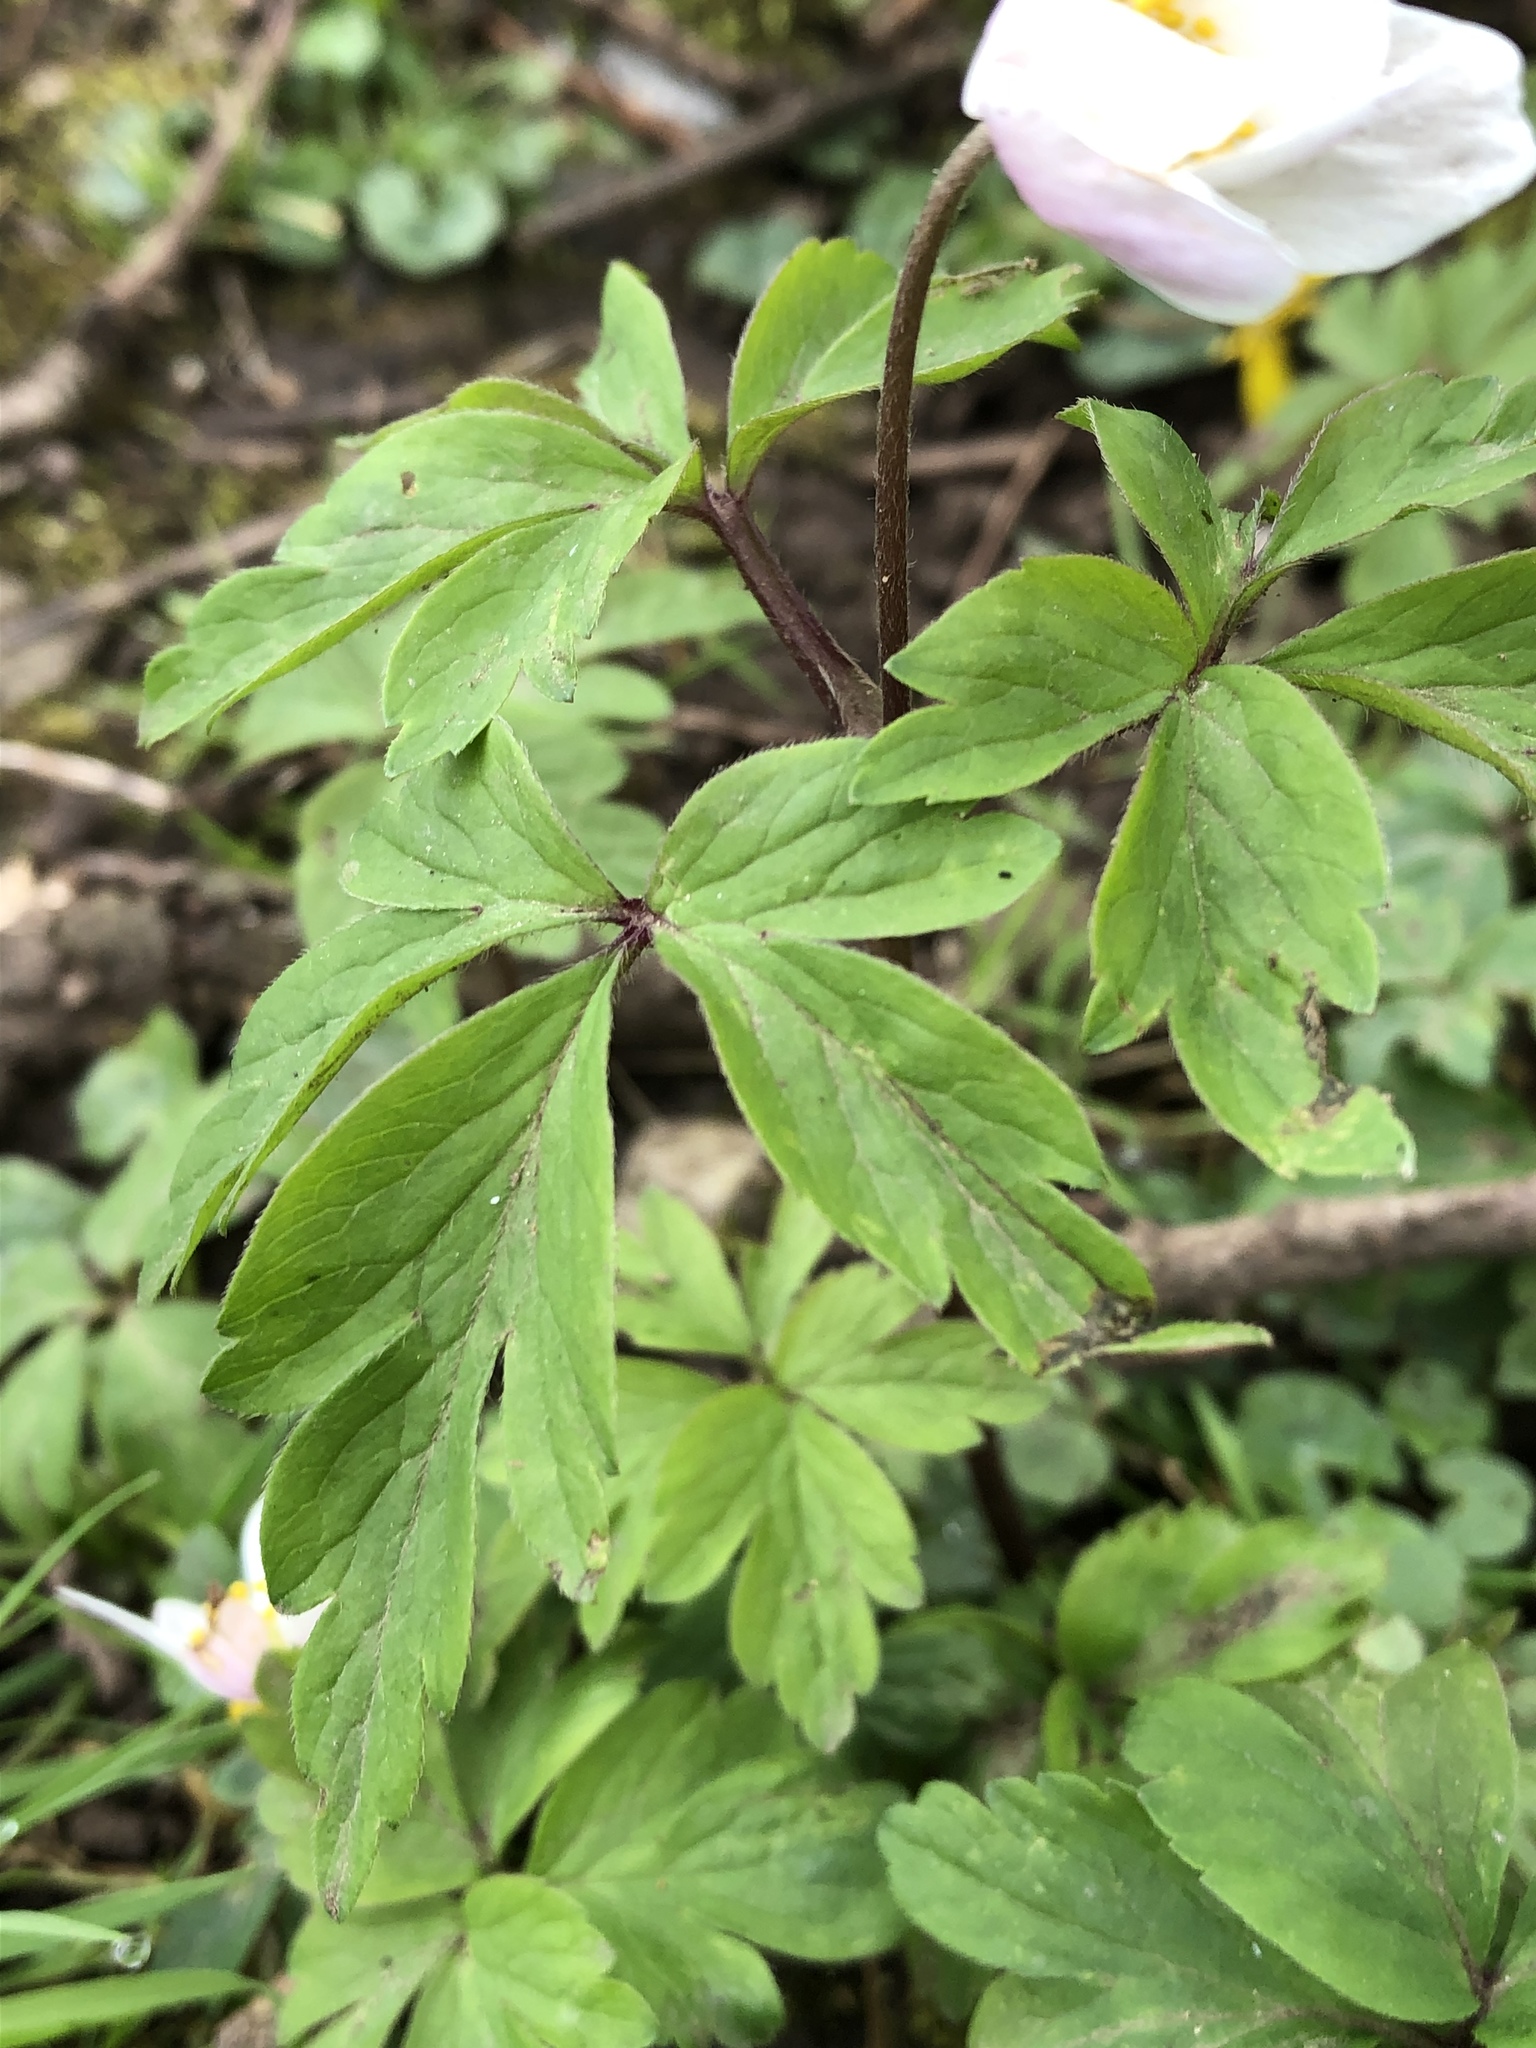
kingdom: Plantae
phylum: Tracheophyta
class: Magnoliopsida
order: Ranunculales
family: Ranunculaceae
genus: Anemone
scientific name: Anemone nemorosa
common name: Wood anemone
